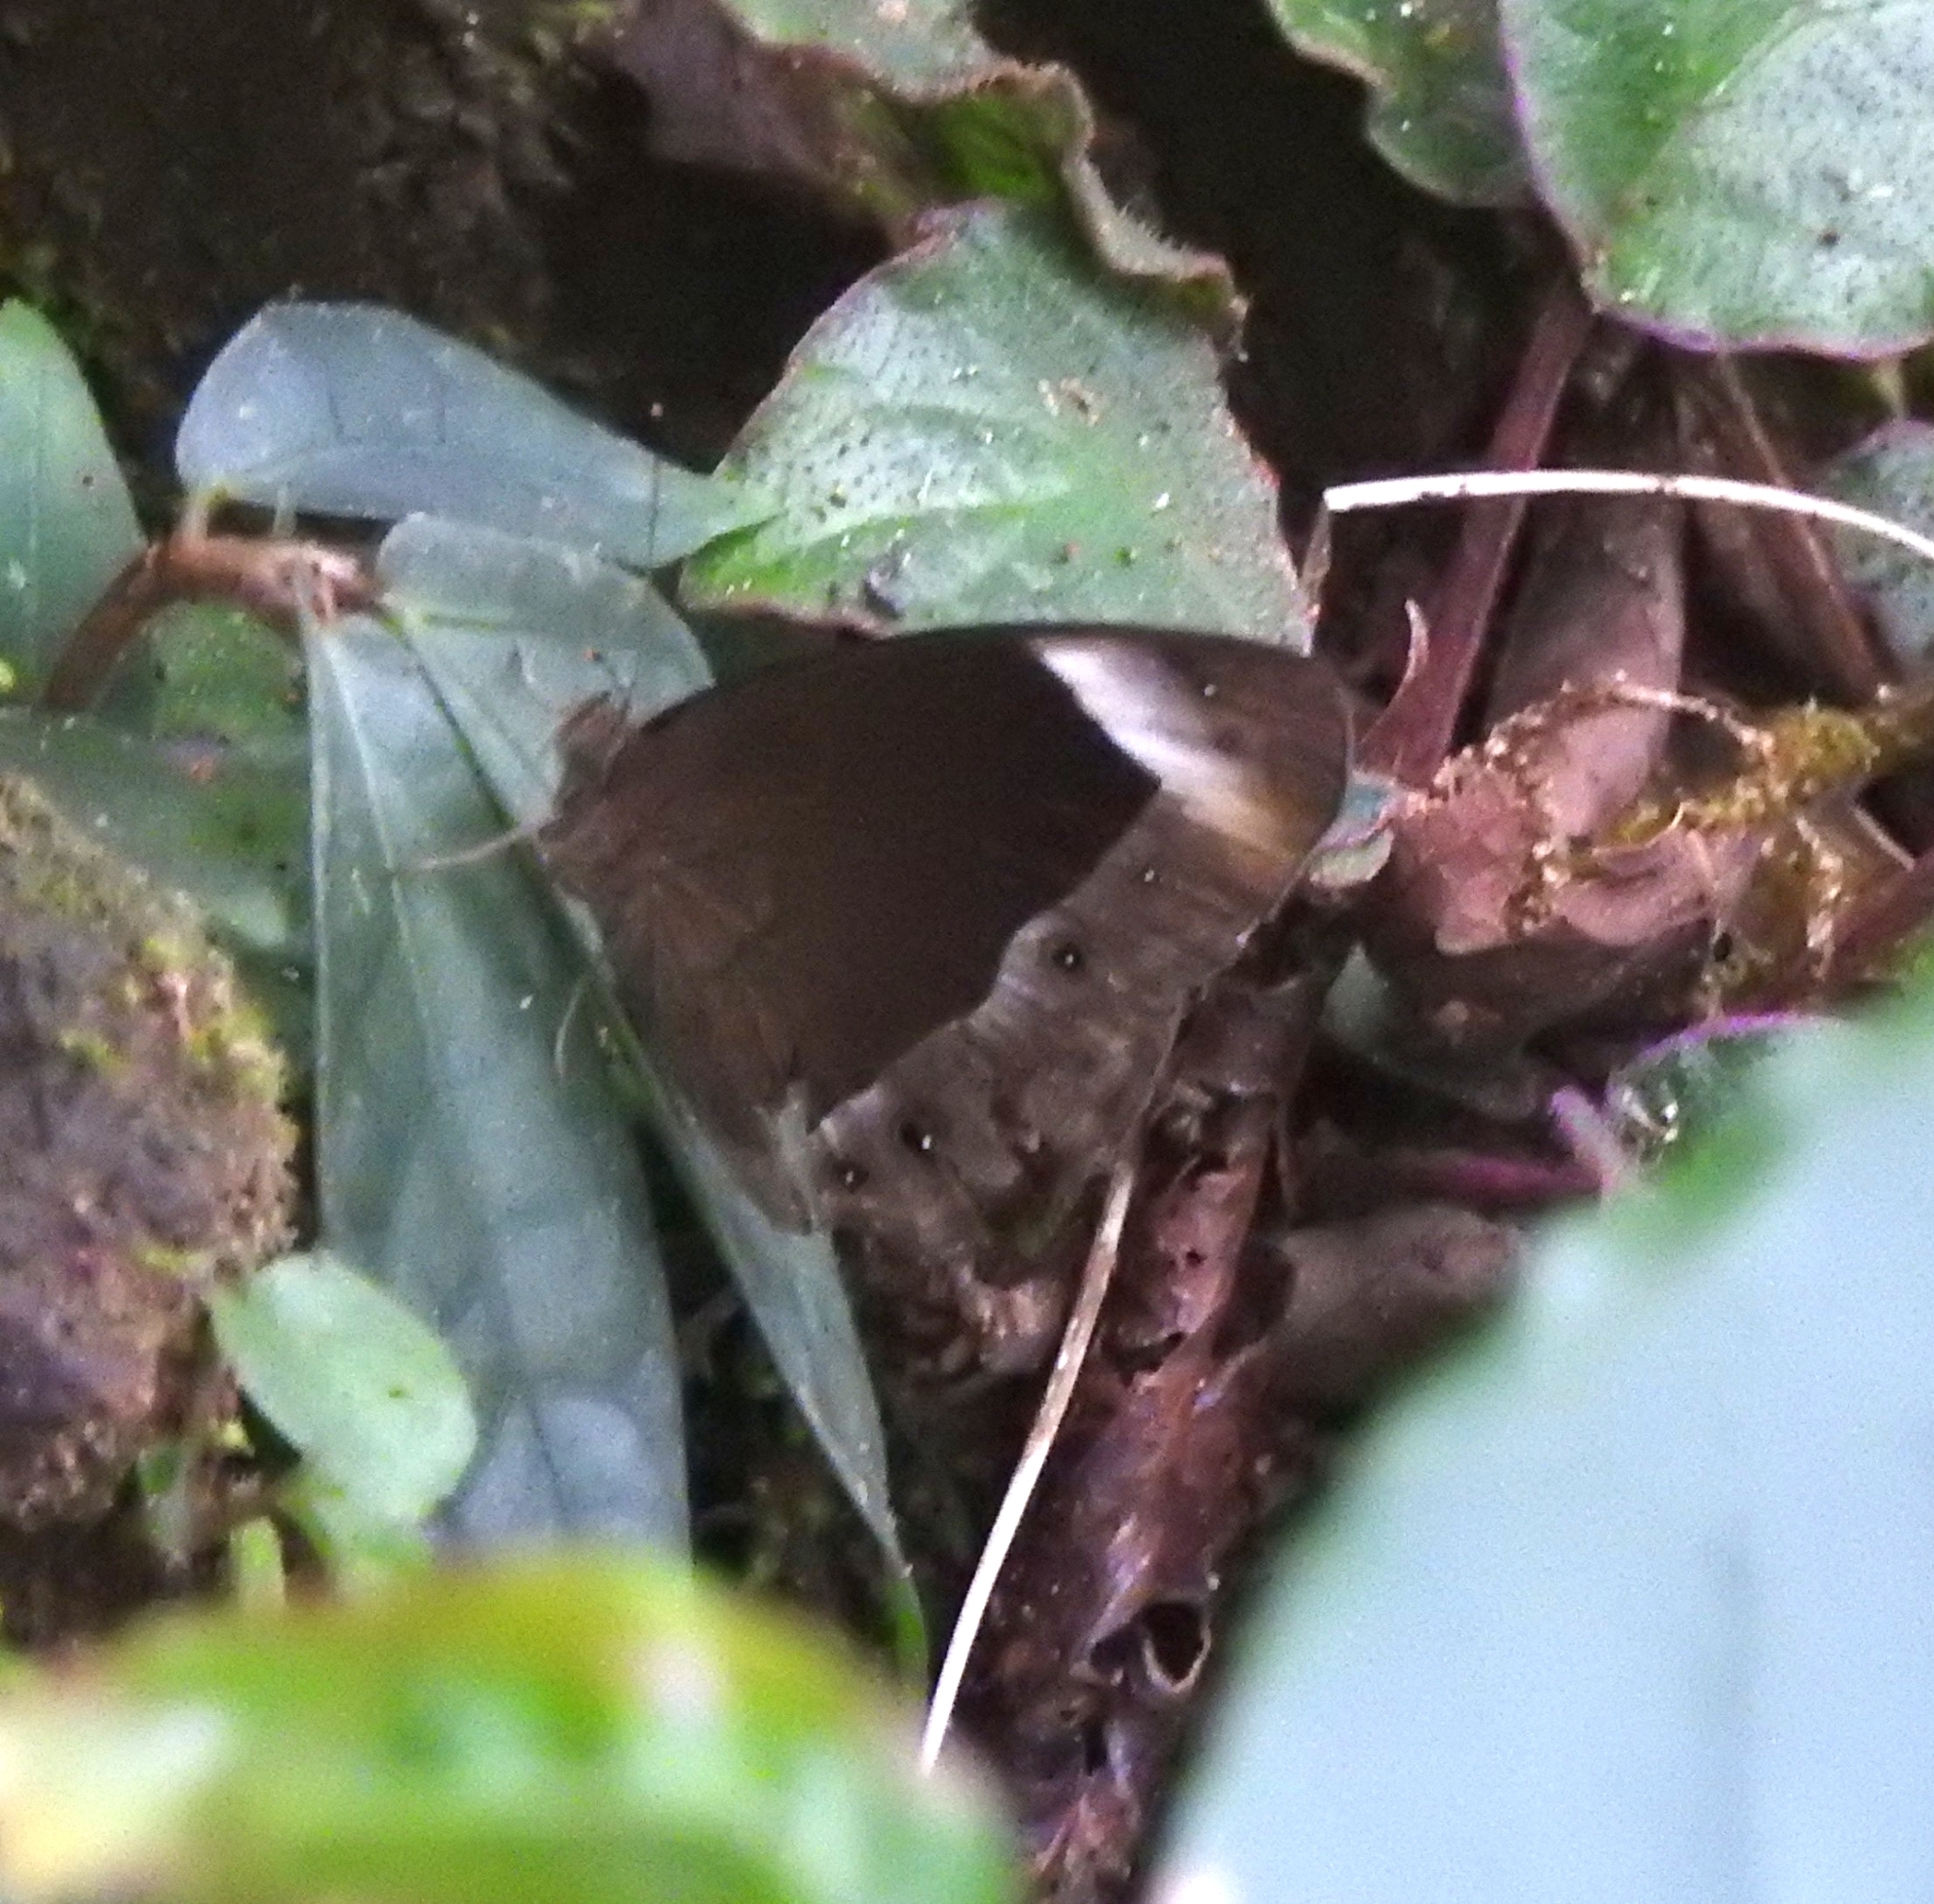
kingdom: Animalia
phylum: Arthropoda
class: Insecta
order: Lepidoptera
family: Nymphalidae
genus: Mycalesis
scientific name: Mycalesis anaxias
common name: White-bar bushbrown
